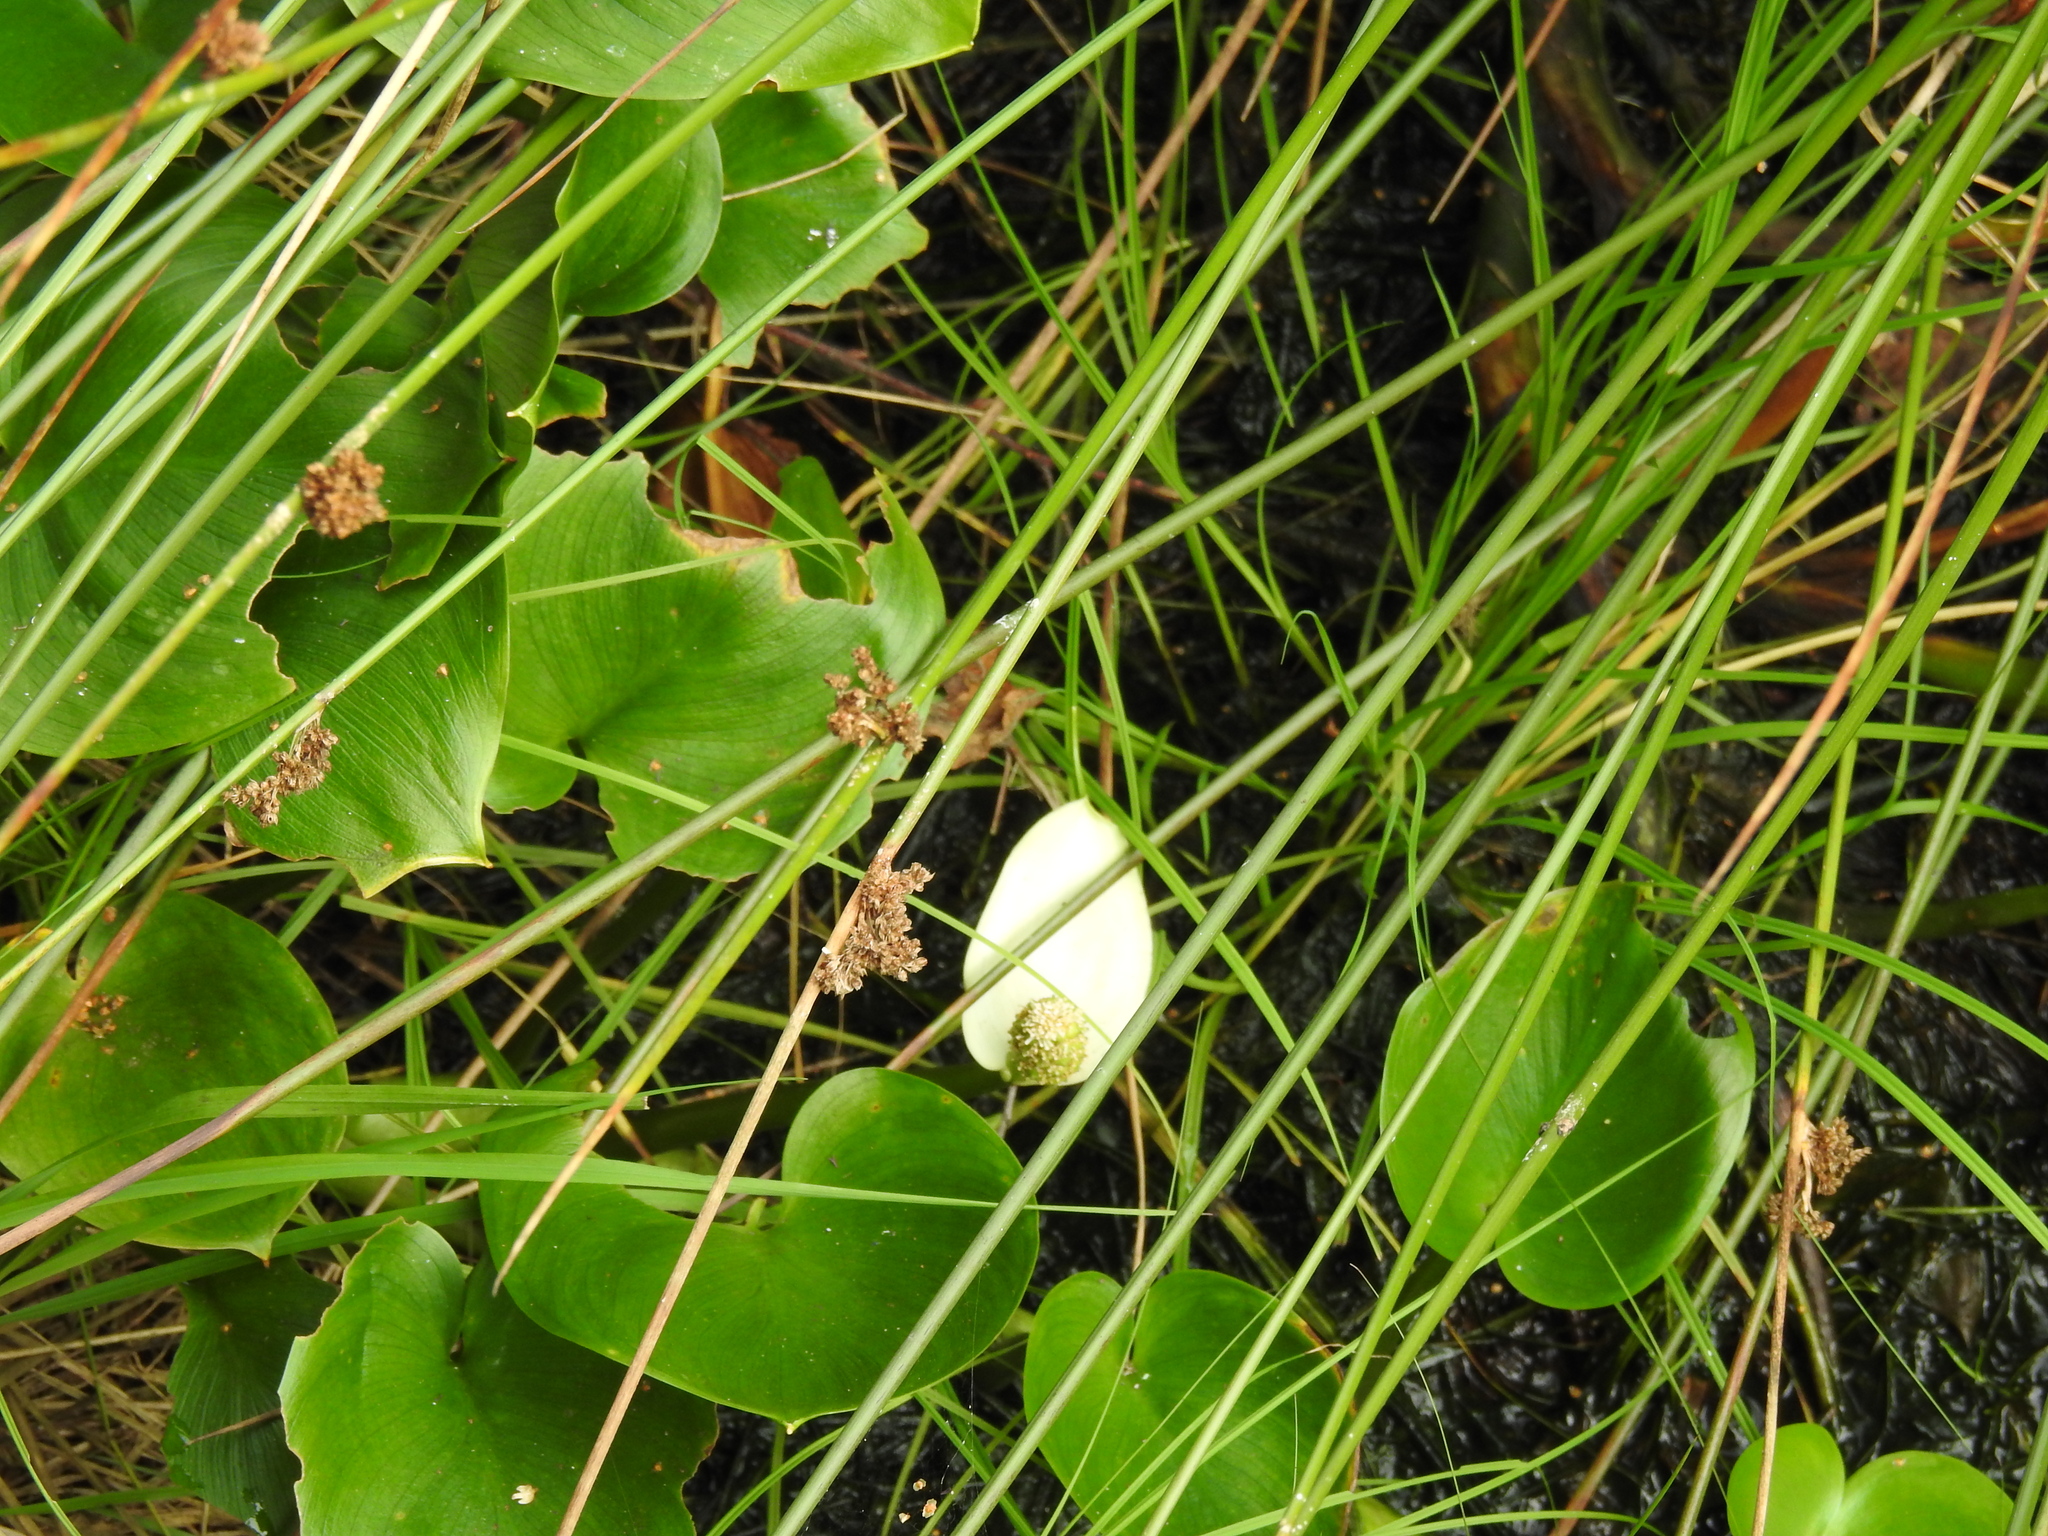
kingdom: Plantae
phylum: Tracheophyta
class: Liliopsida
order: Alismatales
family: Araceae
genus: Calla
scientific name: Calla palustris
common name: Bog arum
